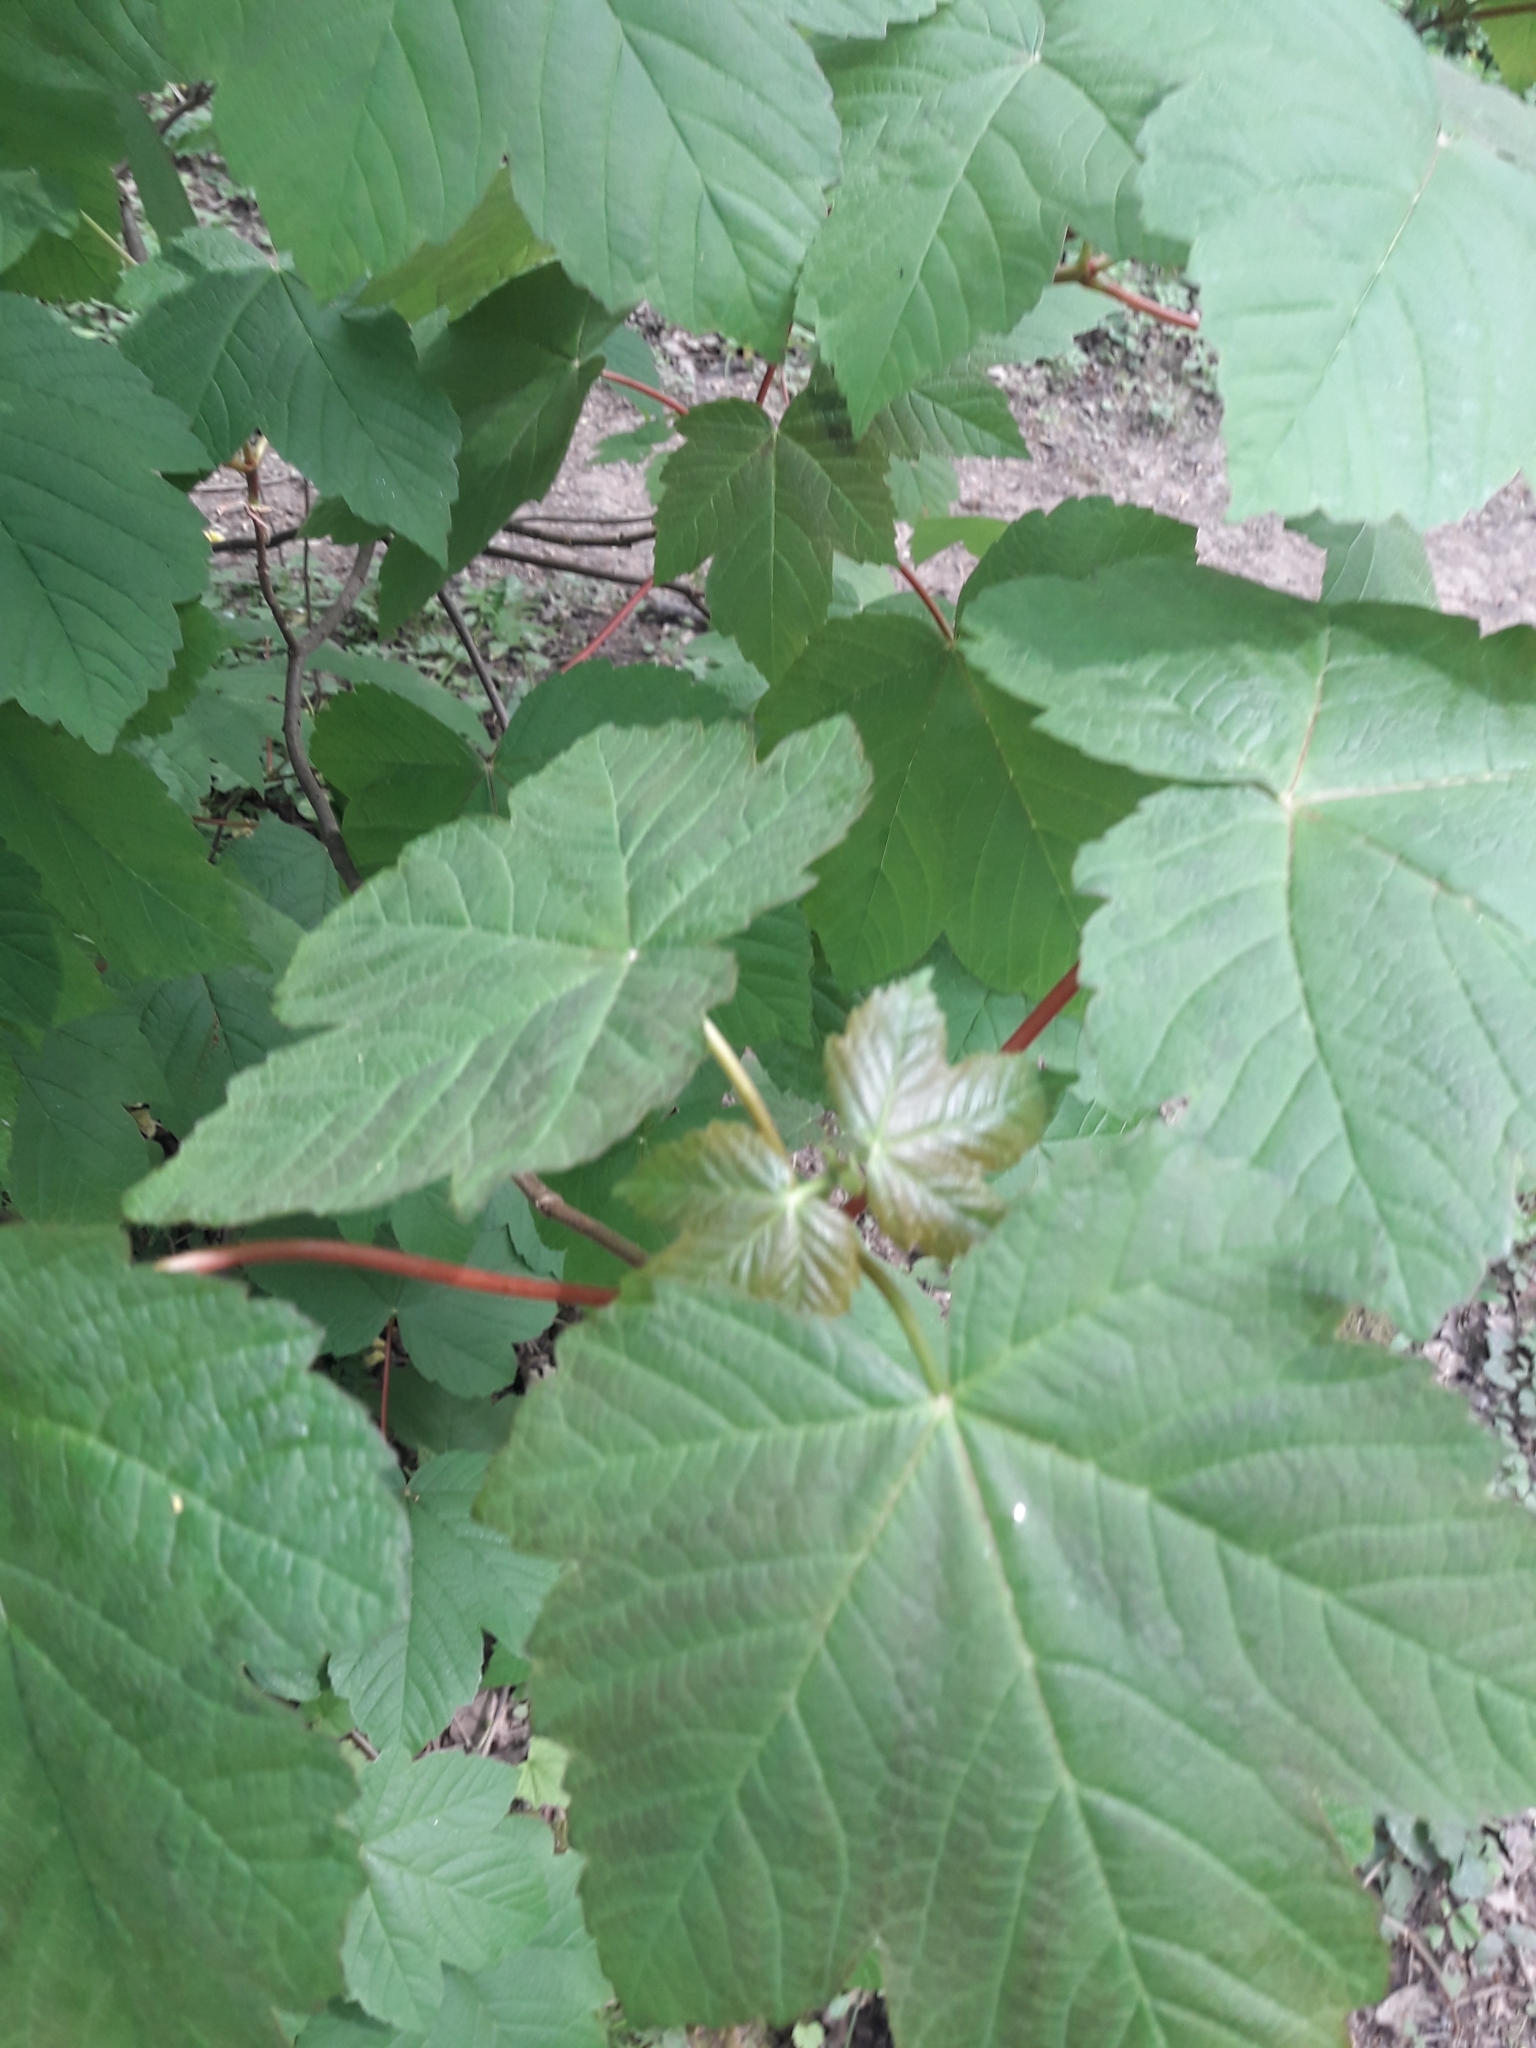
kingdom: Plantae
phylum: Tracheophyta
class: Magnoliopsida
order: Sapindales
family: Sapindaceae
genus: Acer
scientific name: Acer pseudoplatanus
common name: Sycamore
